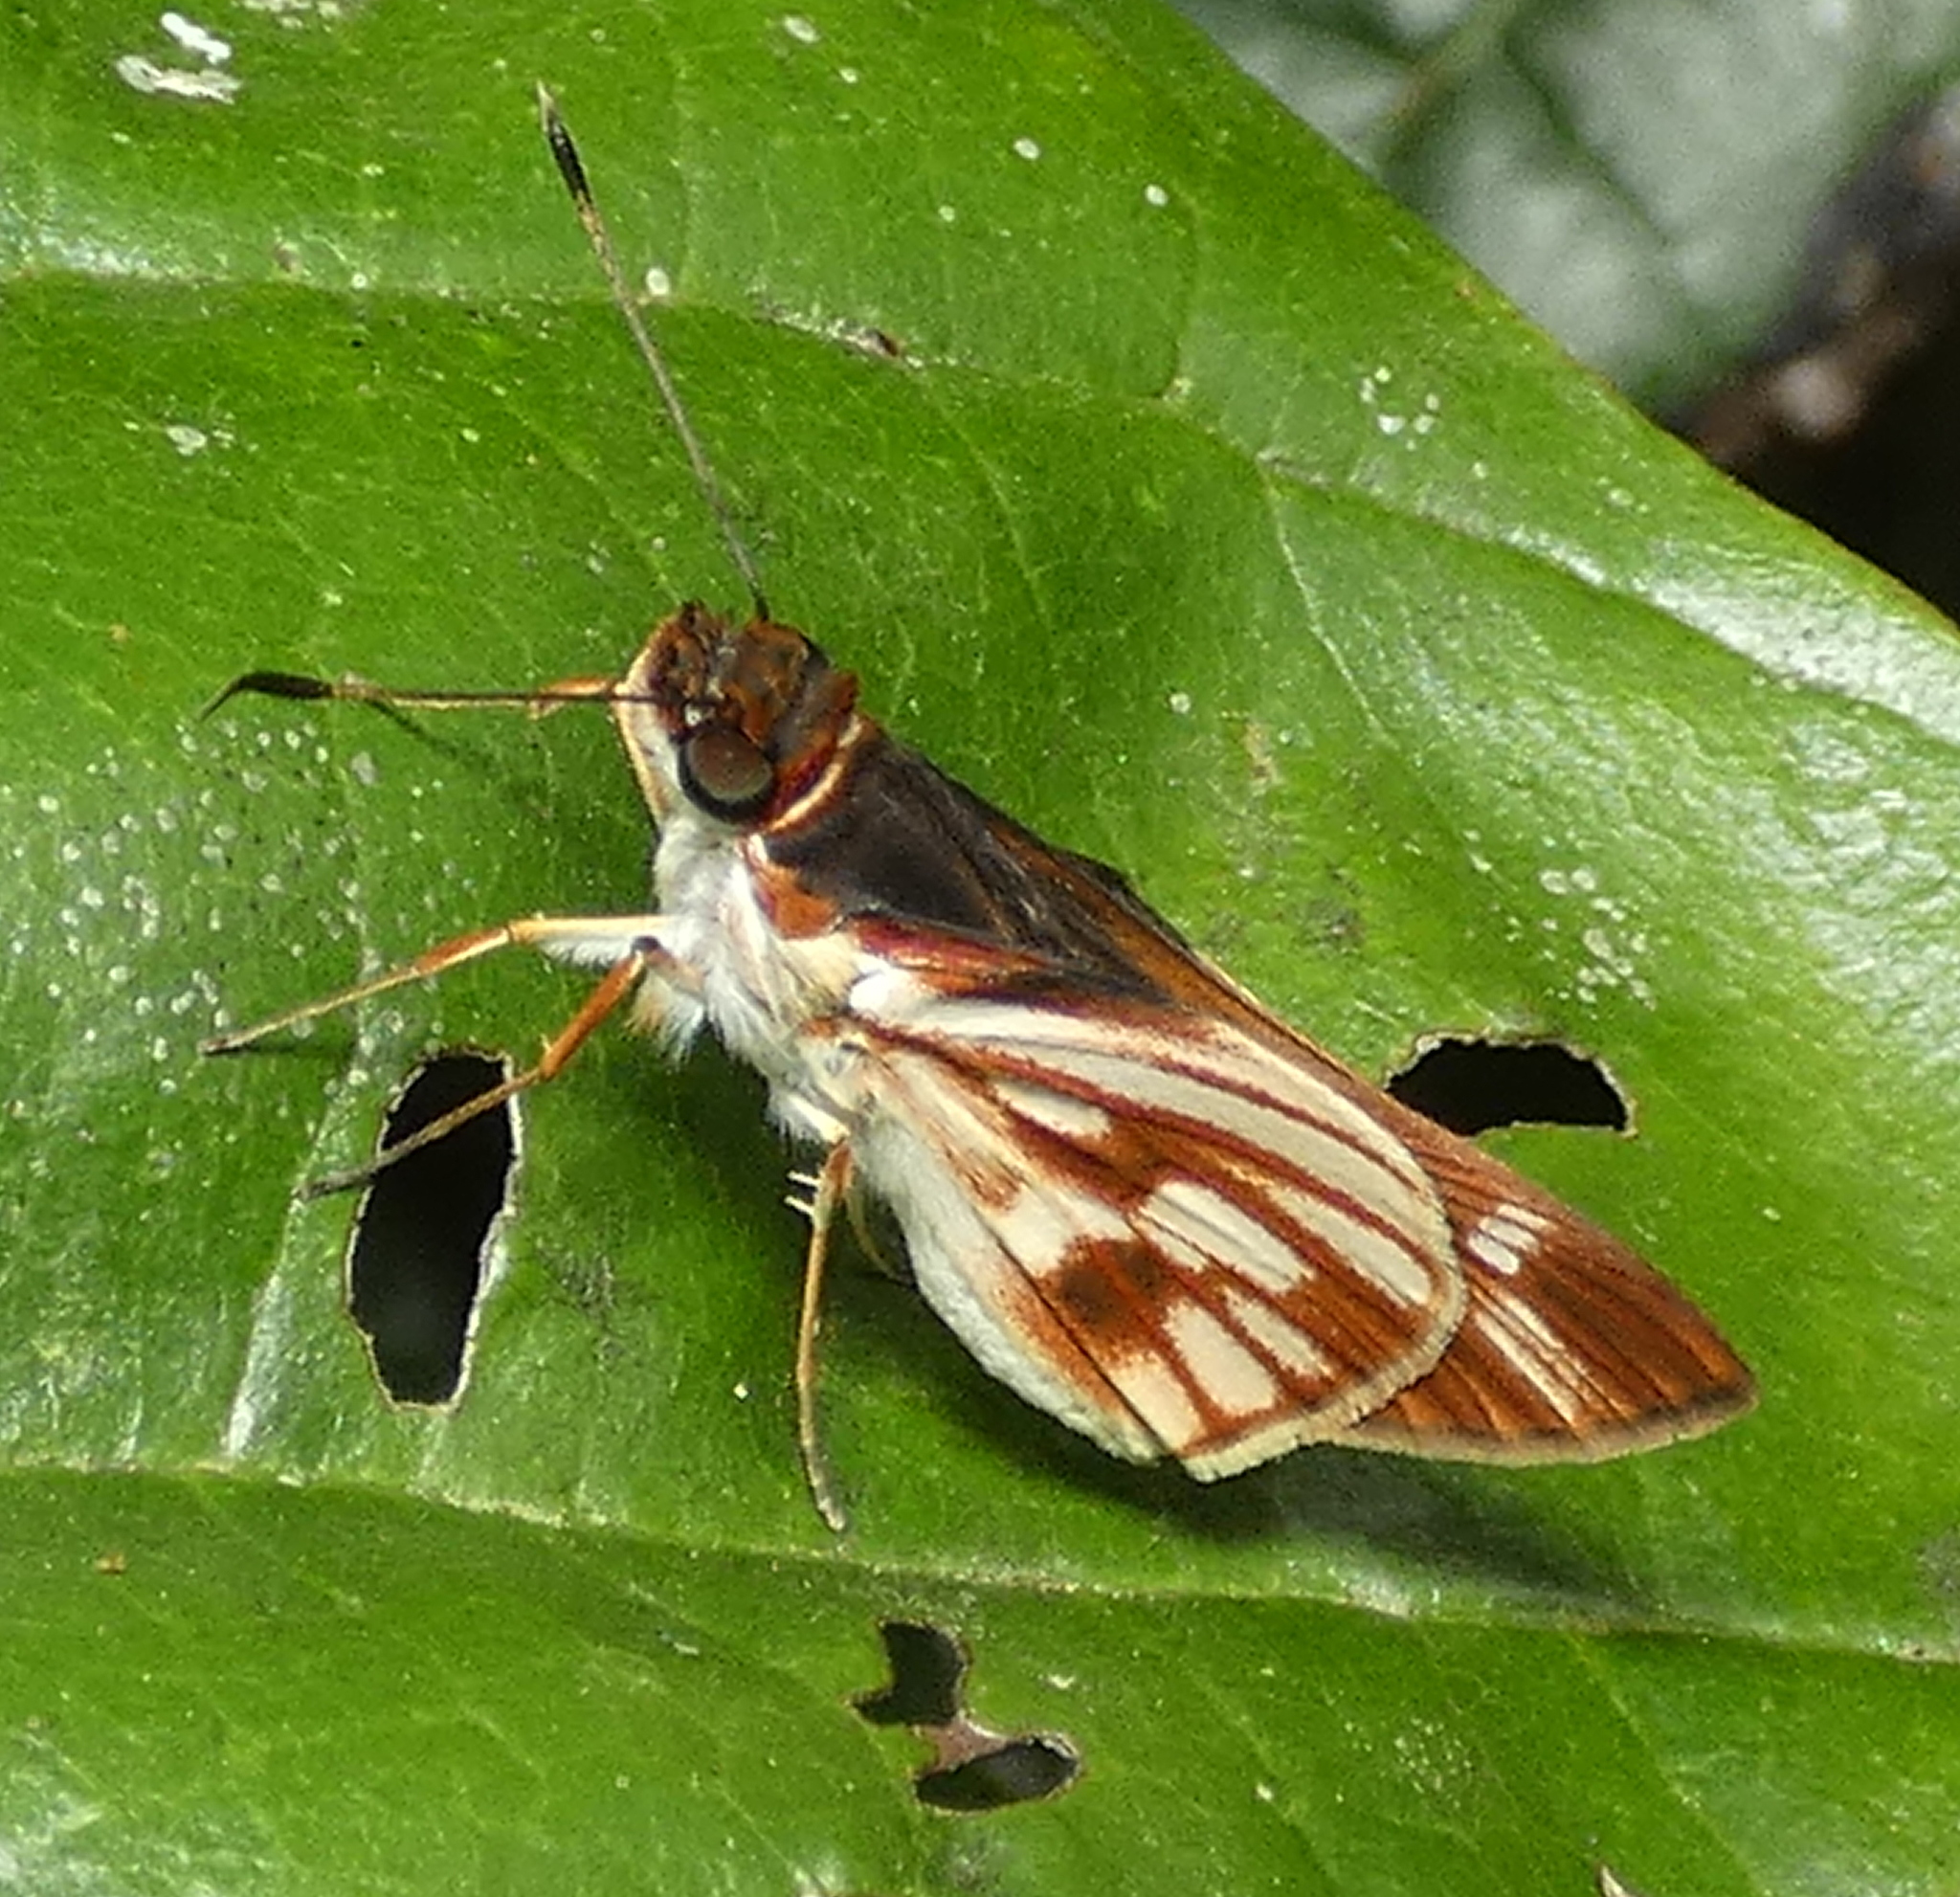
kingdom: Animalia
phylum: Arthropoda
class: Insecta
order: Lepidoptera
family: Hesperiidae
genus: Troyus
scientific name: Troyus fantasos
